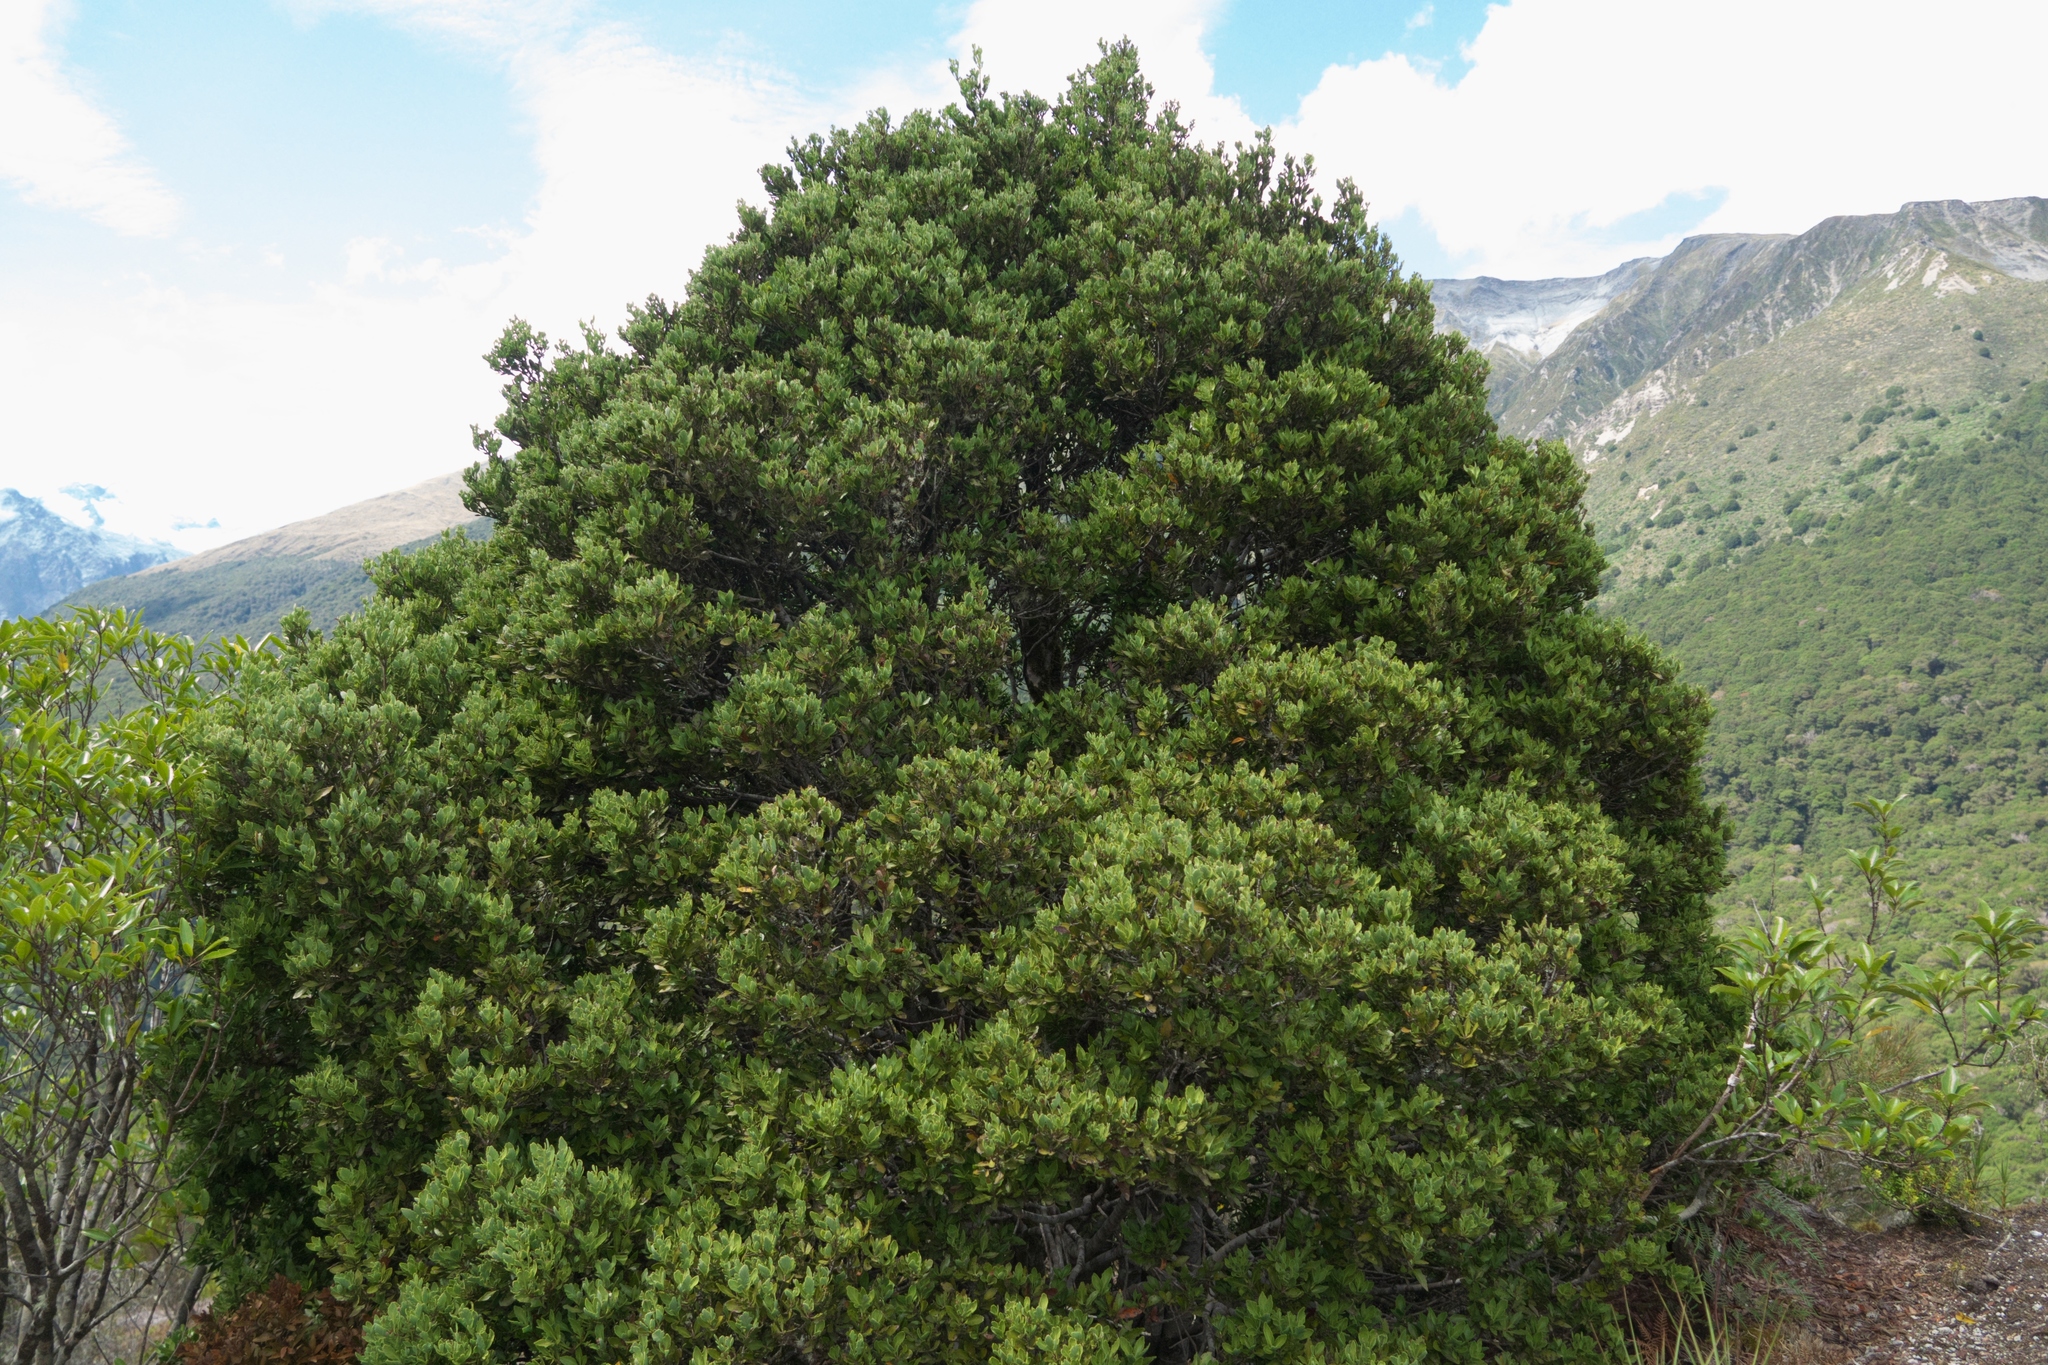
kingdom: Plantae
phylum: Tracheophyta
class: Pinopsida
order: Pinales
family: Phyllocladaceae
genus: Phyllocladus
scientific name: Phyllocladus trichomanoides
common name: Celery pine
